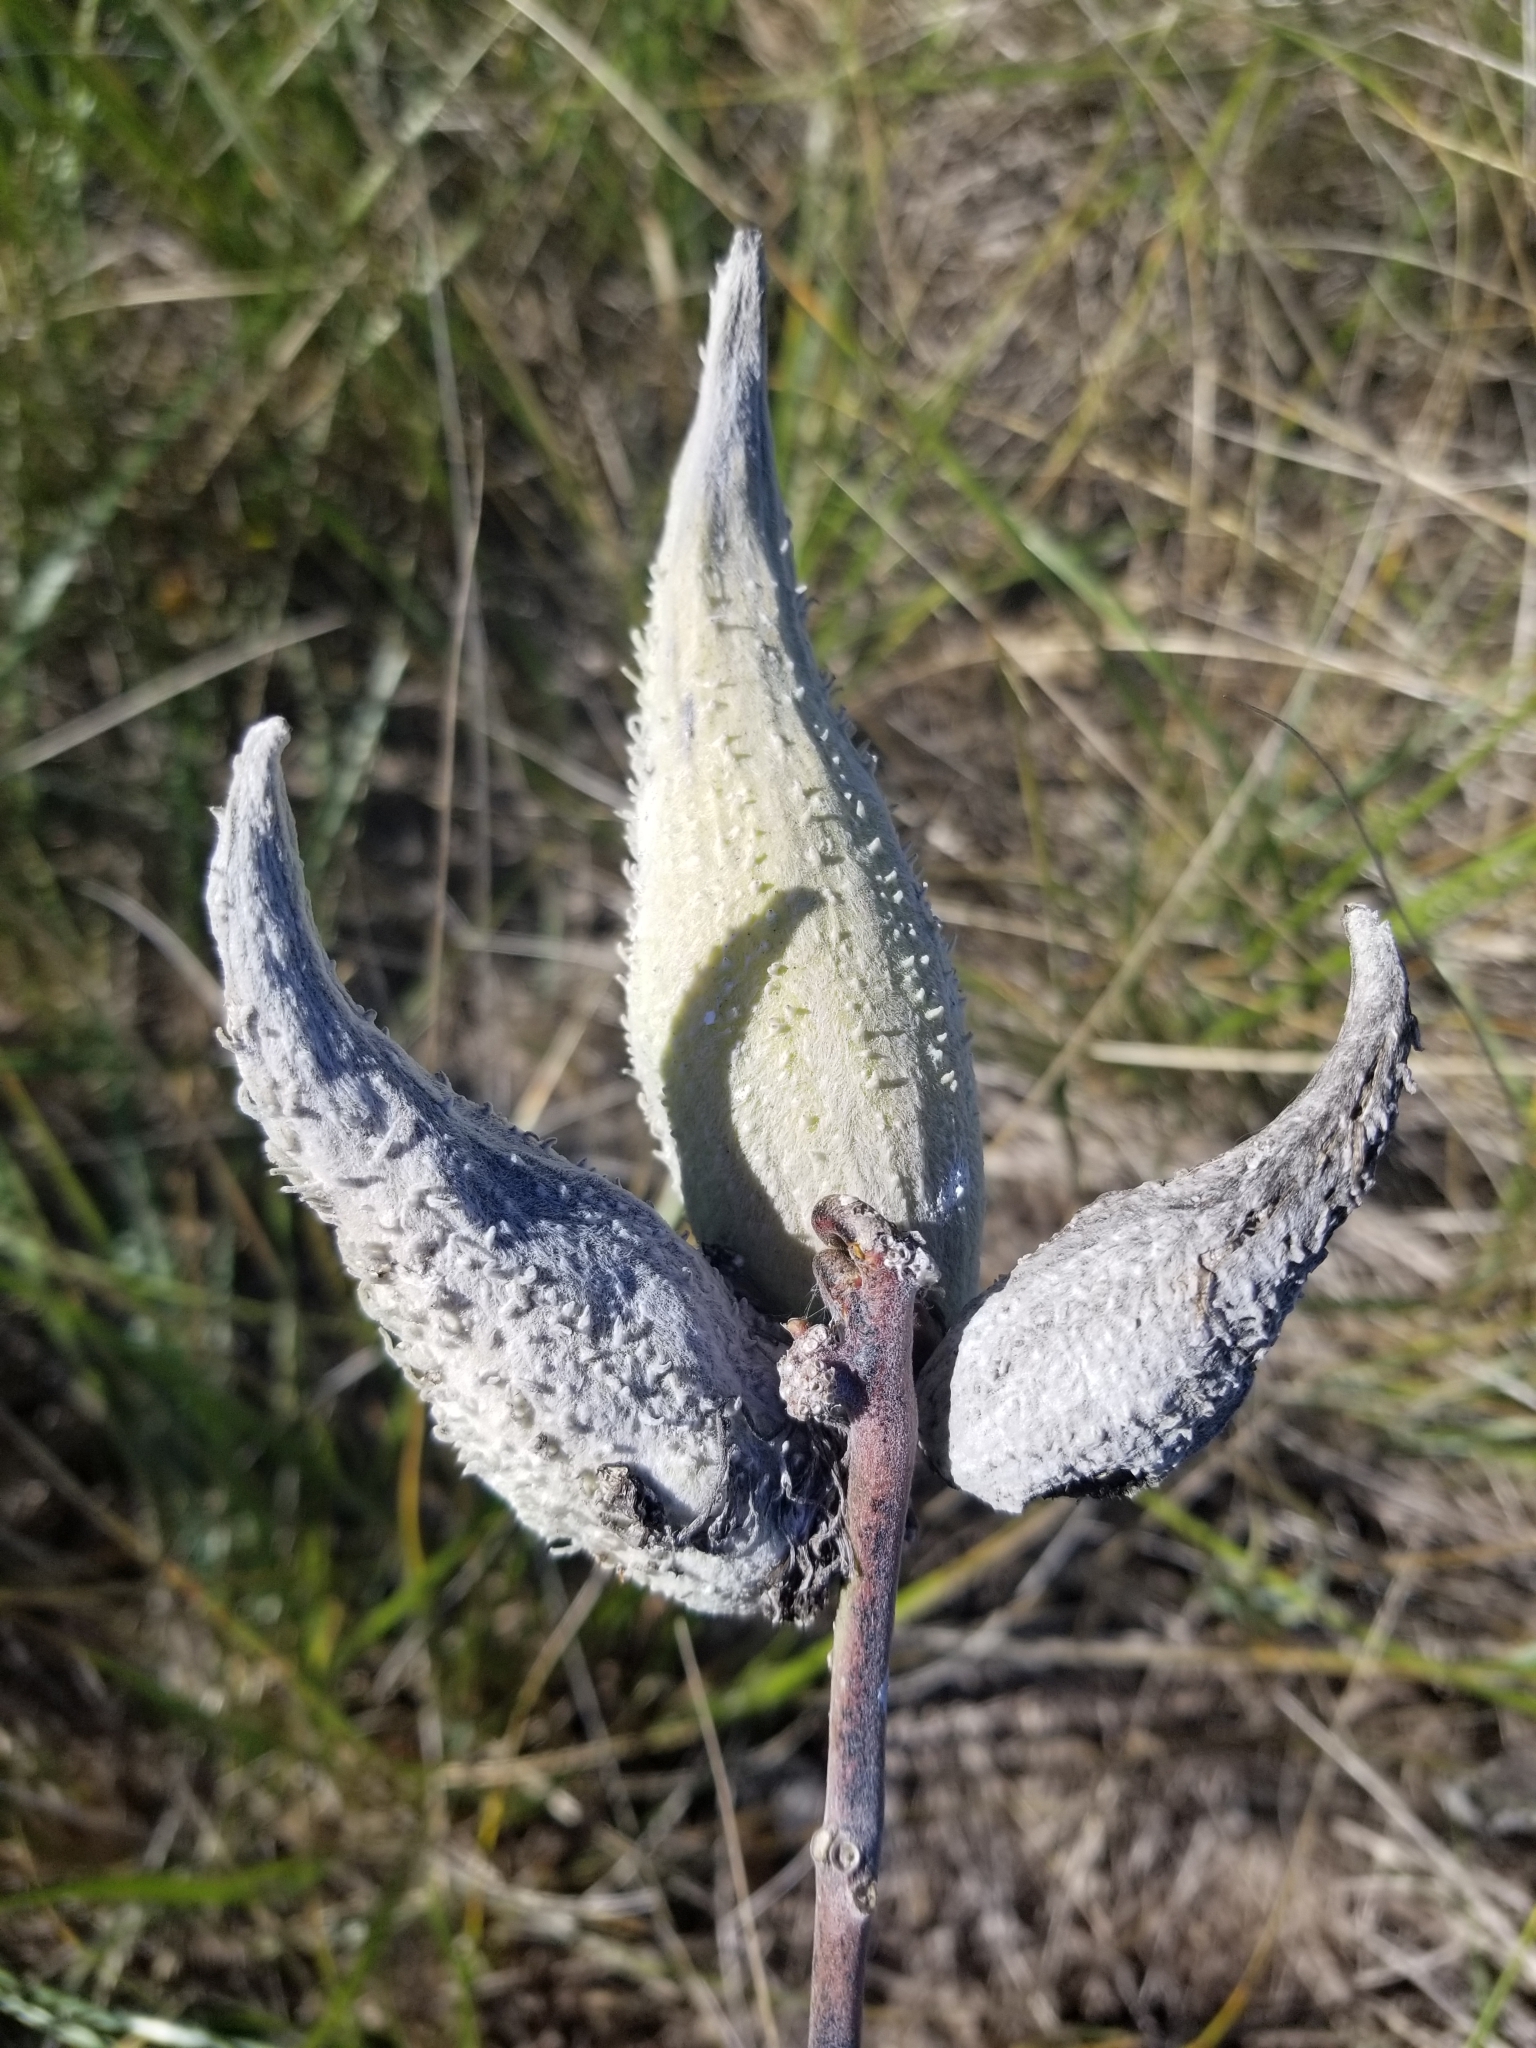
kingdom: Plantae
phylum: Tracheophyta
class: Magnoliopsida
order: Gentianales
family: Apocynaceae
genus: Asclepias
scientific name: Asclepias syriaca
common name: Common milkweed
